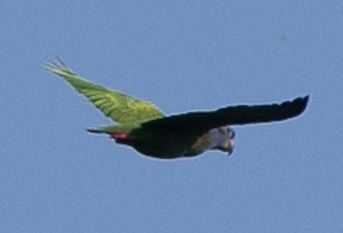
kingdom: Animalia
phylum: Chordata
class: Aves
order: Psittaciformes
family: Psittacidae
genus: Pionus
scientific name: Pionus menstruus
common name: Blue-headed parrot
